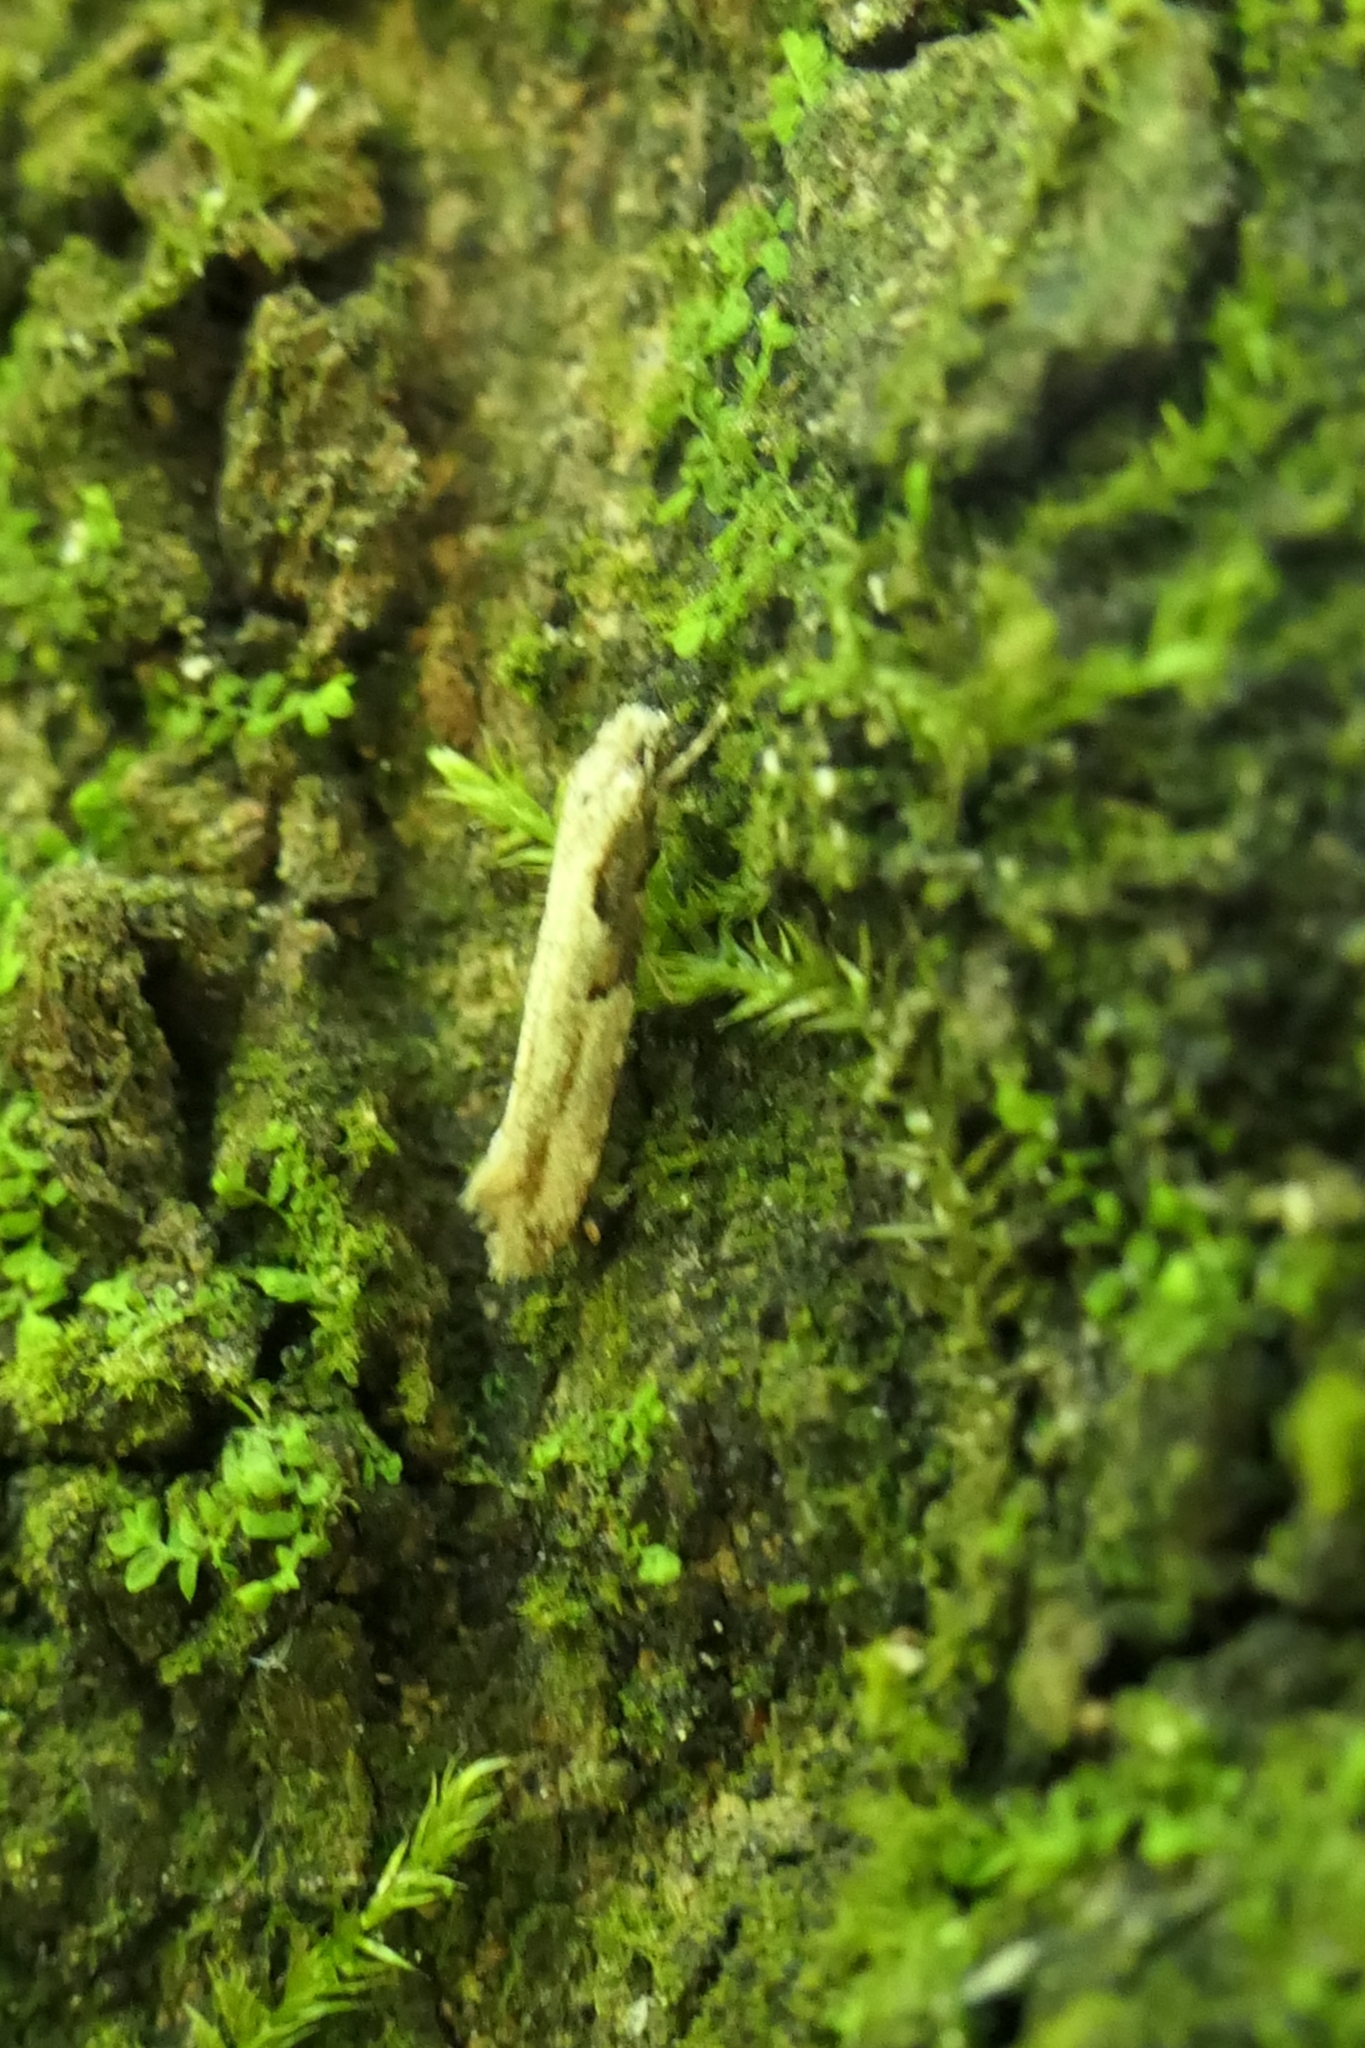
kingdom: Animalia
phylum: Arthropoda
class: Insecta
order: Lepidoptera
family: Tineidae
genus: Crypsitricha
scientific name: Crypsitricha pharotoma
